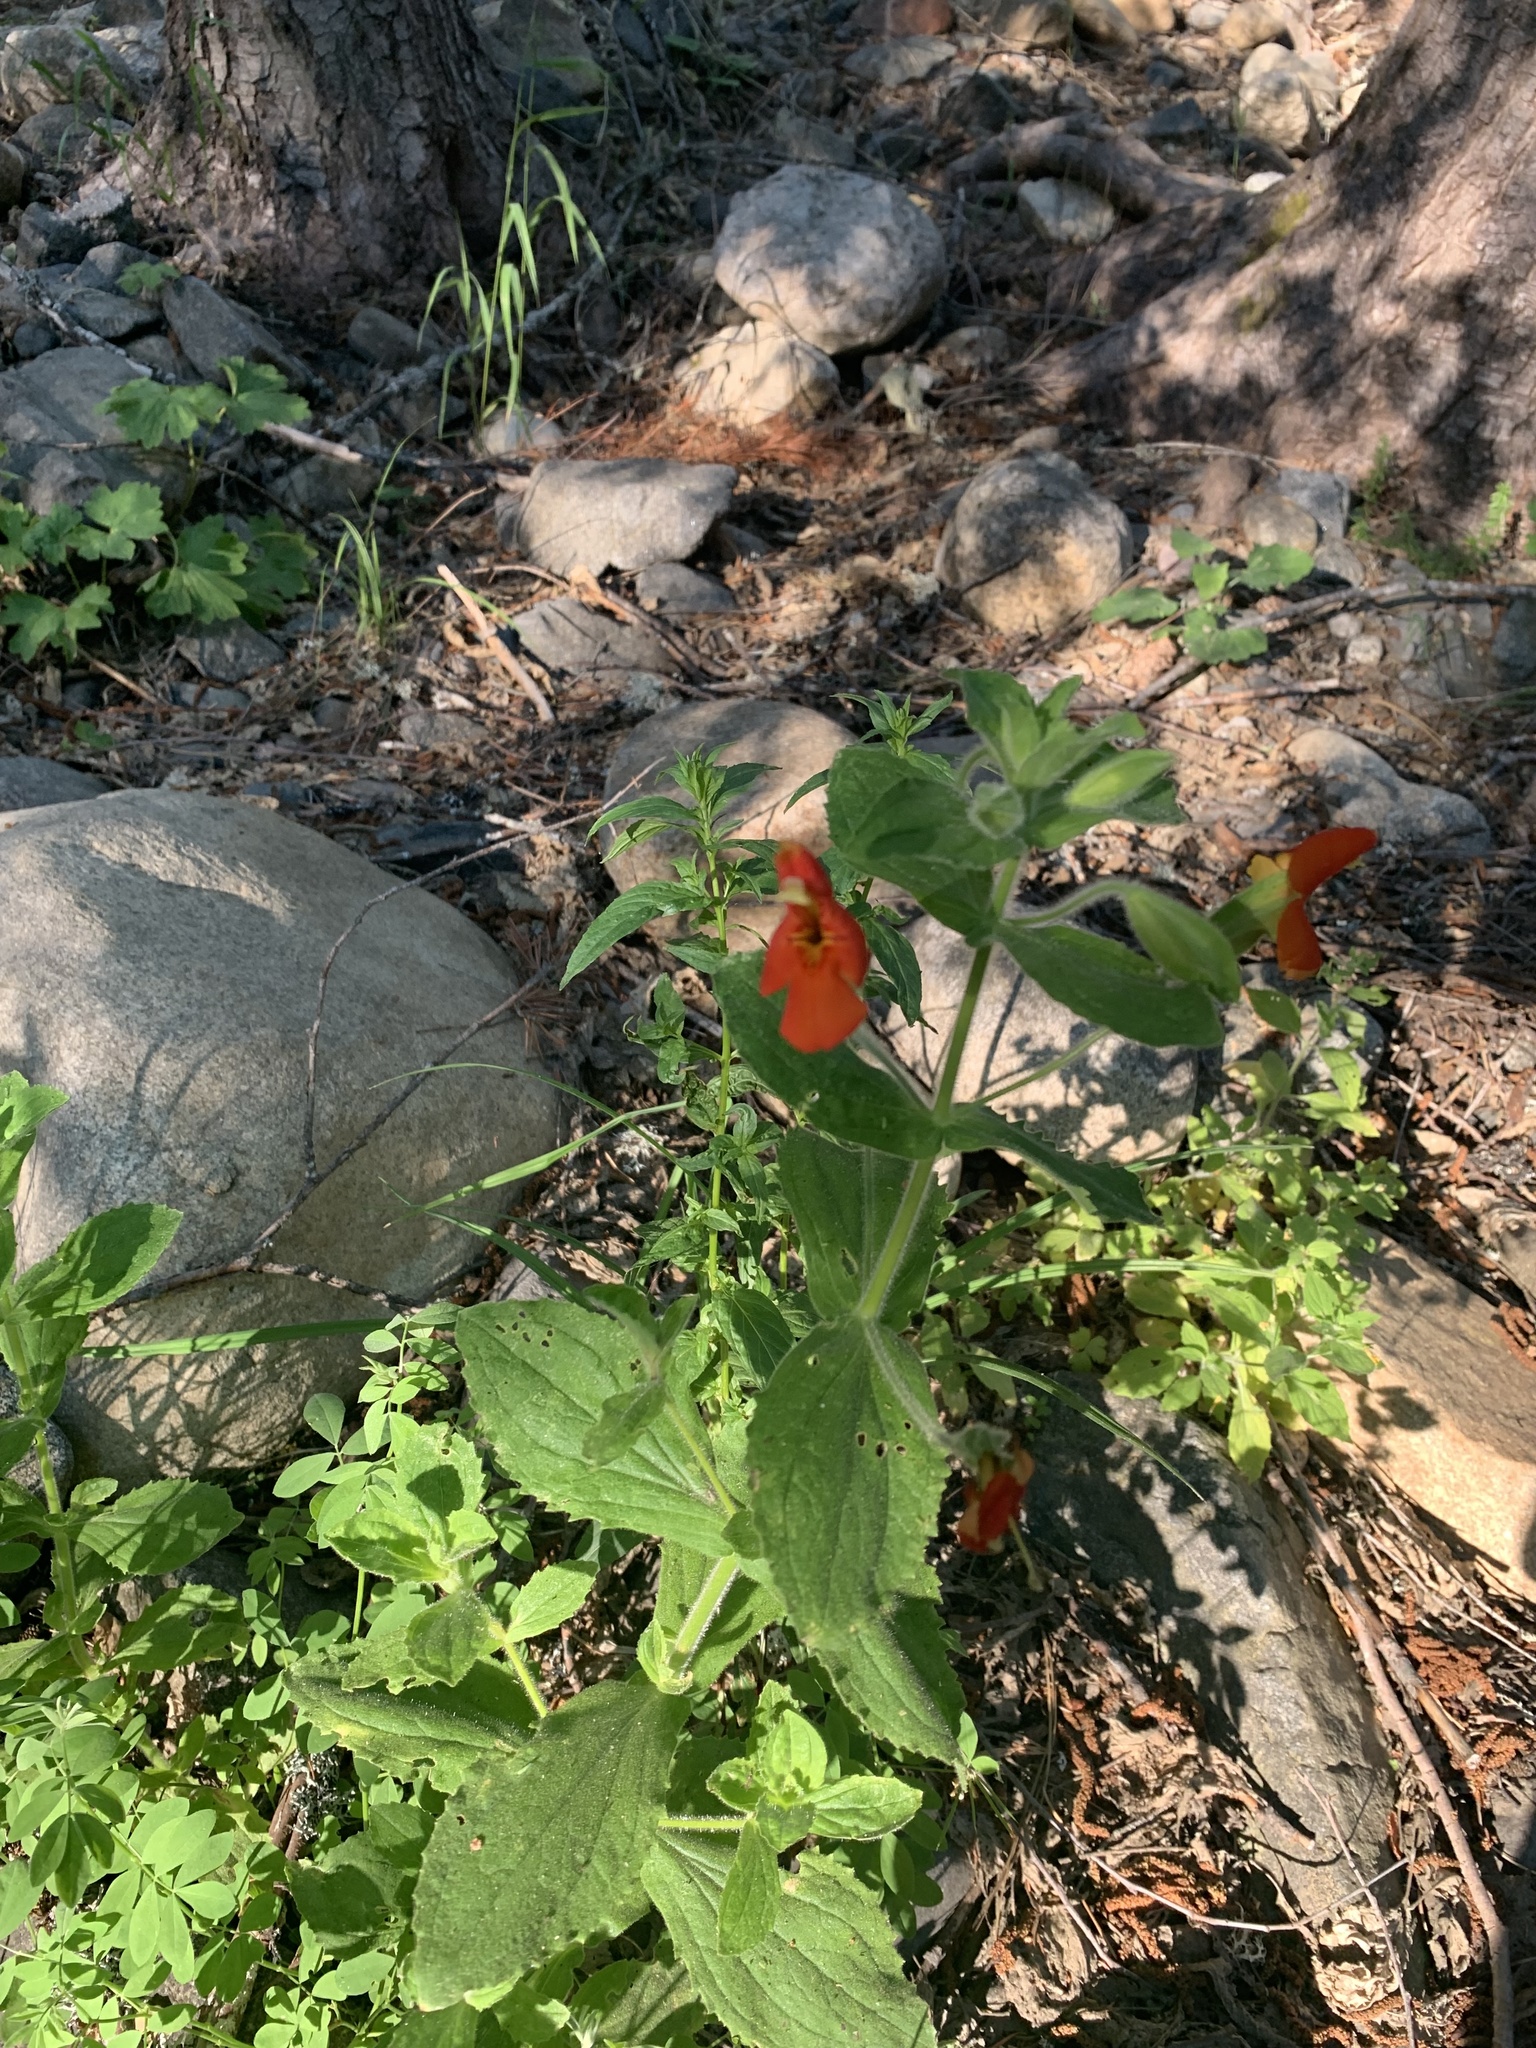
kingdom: Plantae
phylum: Tracheophyta
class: Magnoliopsida
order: Lamiales
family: Phrymaceae
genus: Erythranthe
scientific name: Erythranthe cardinalis
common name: Scarlet monkey-flower
